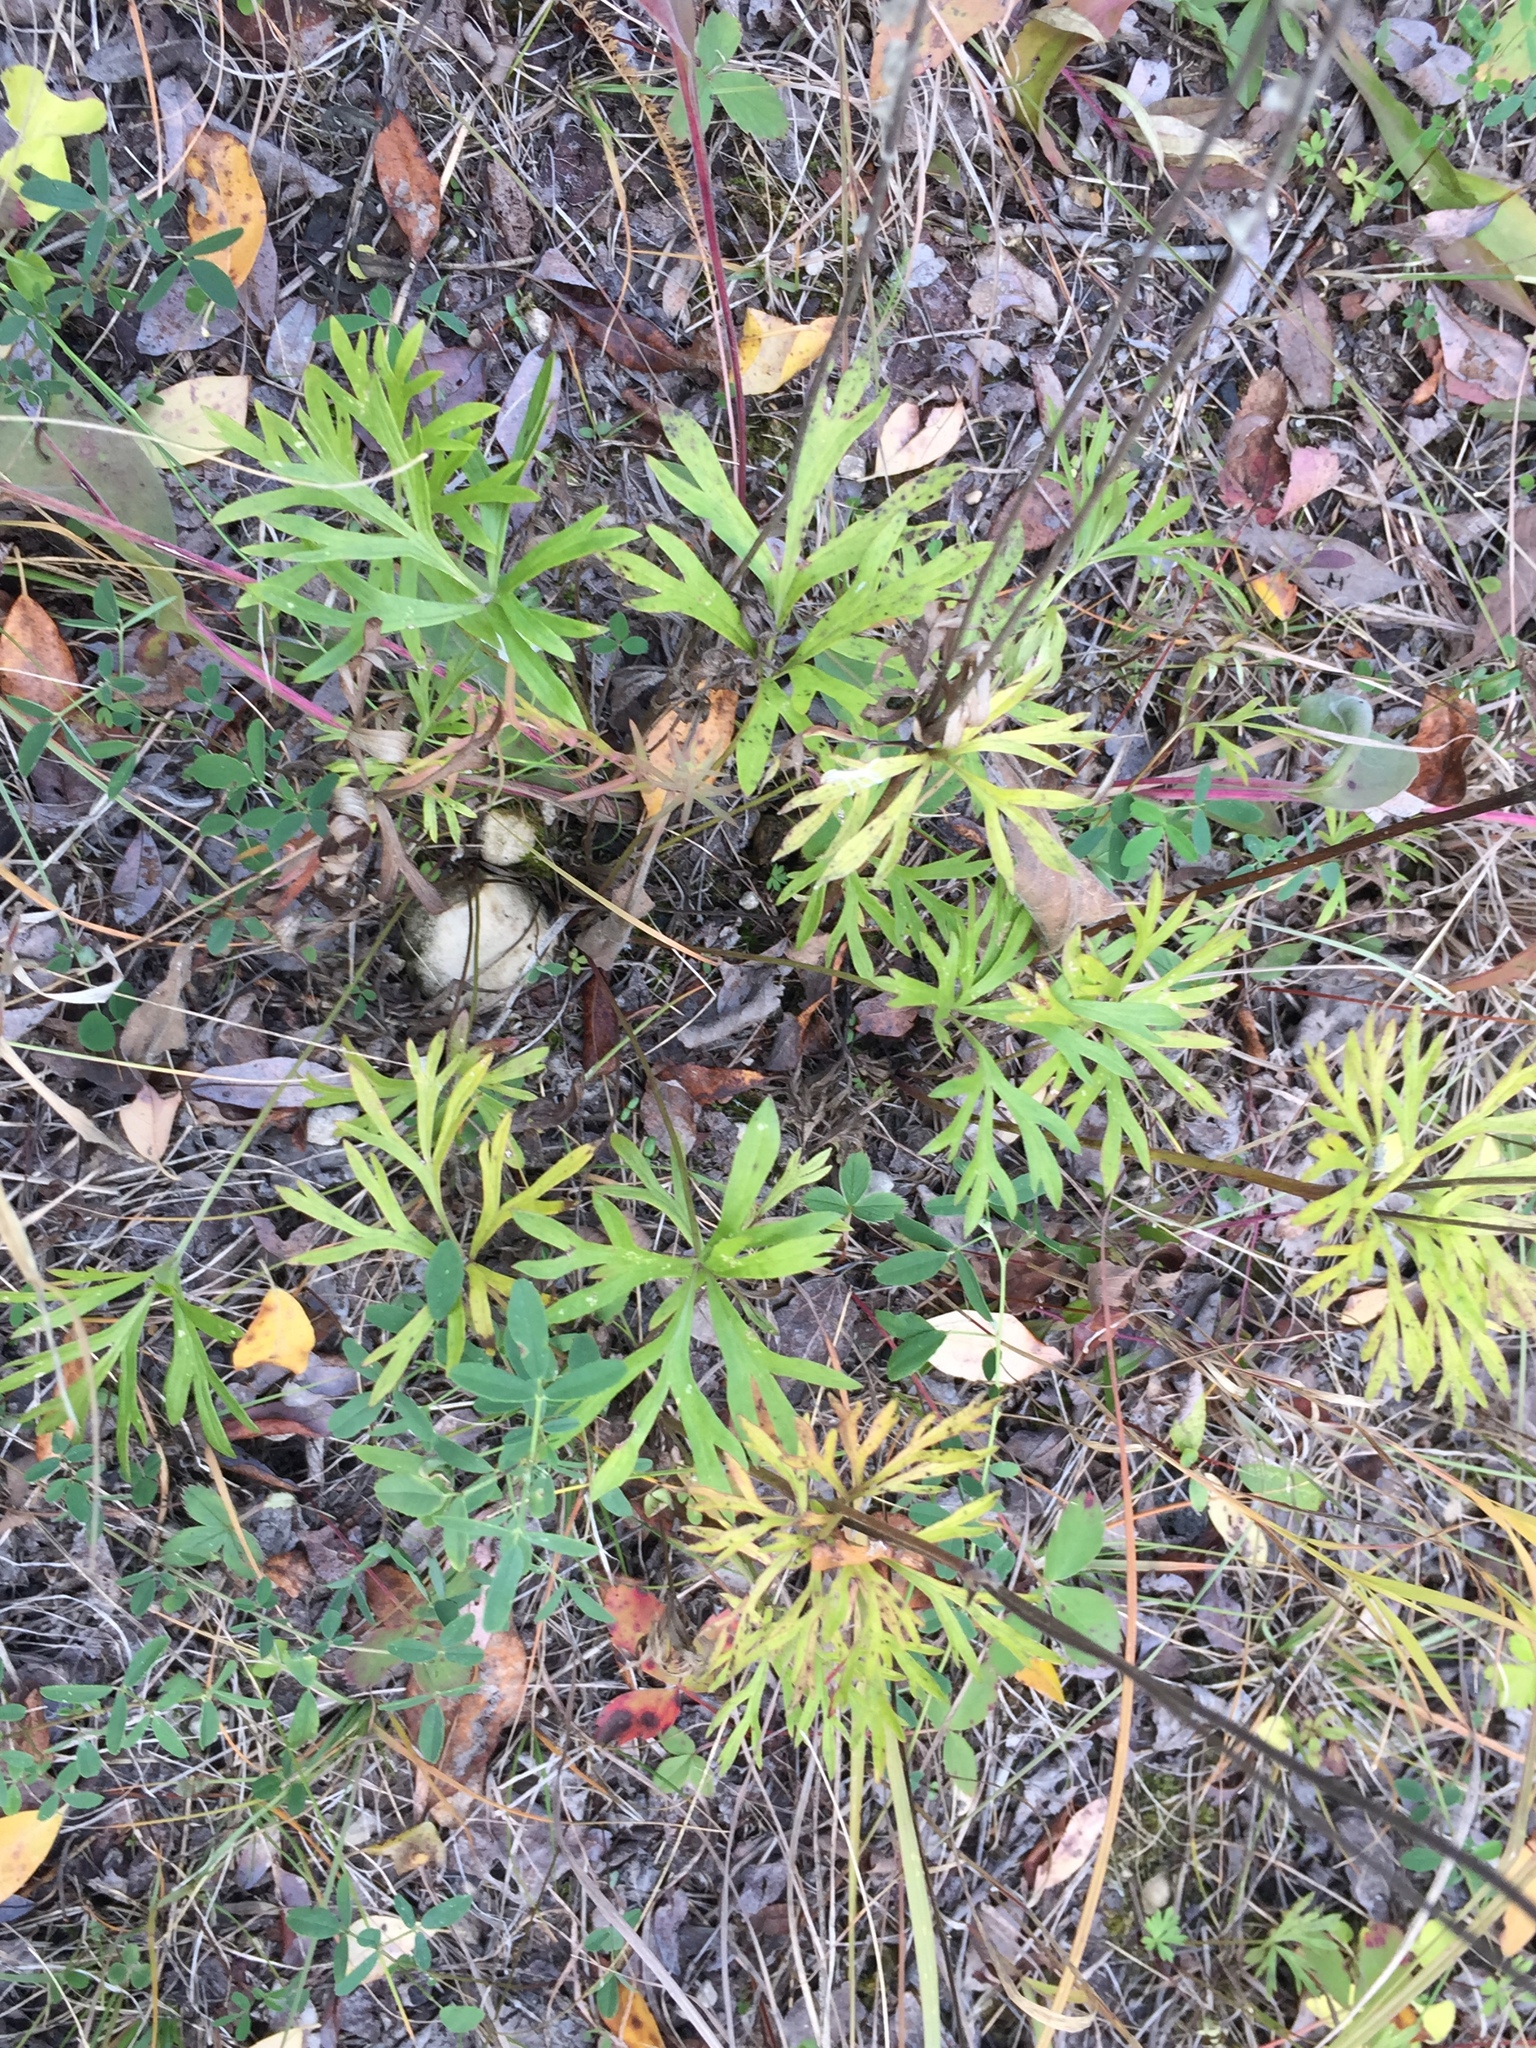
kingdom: Plantae
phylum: Tracheophyta
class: Magnoliopsida
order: Ranunculales
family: Ranunculaceae
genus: Pulsatilla
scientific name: Pulsatilla nuttalliana
